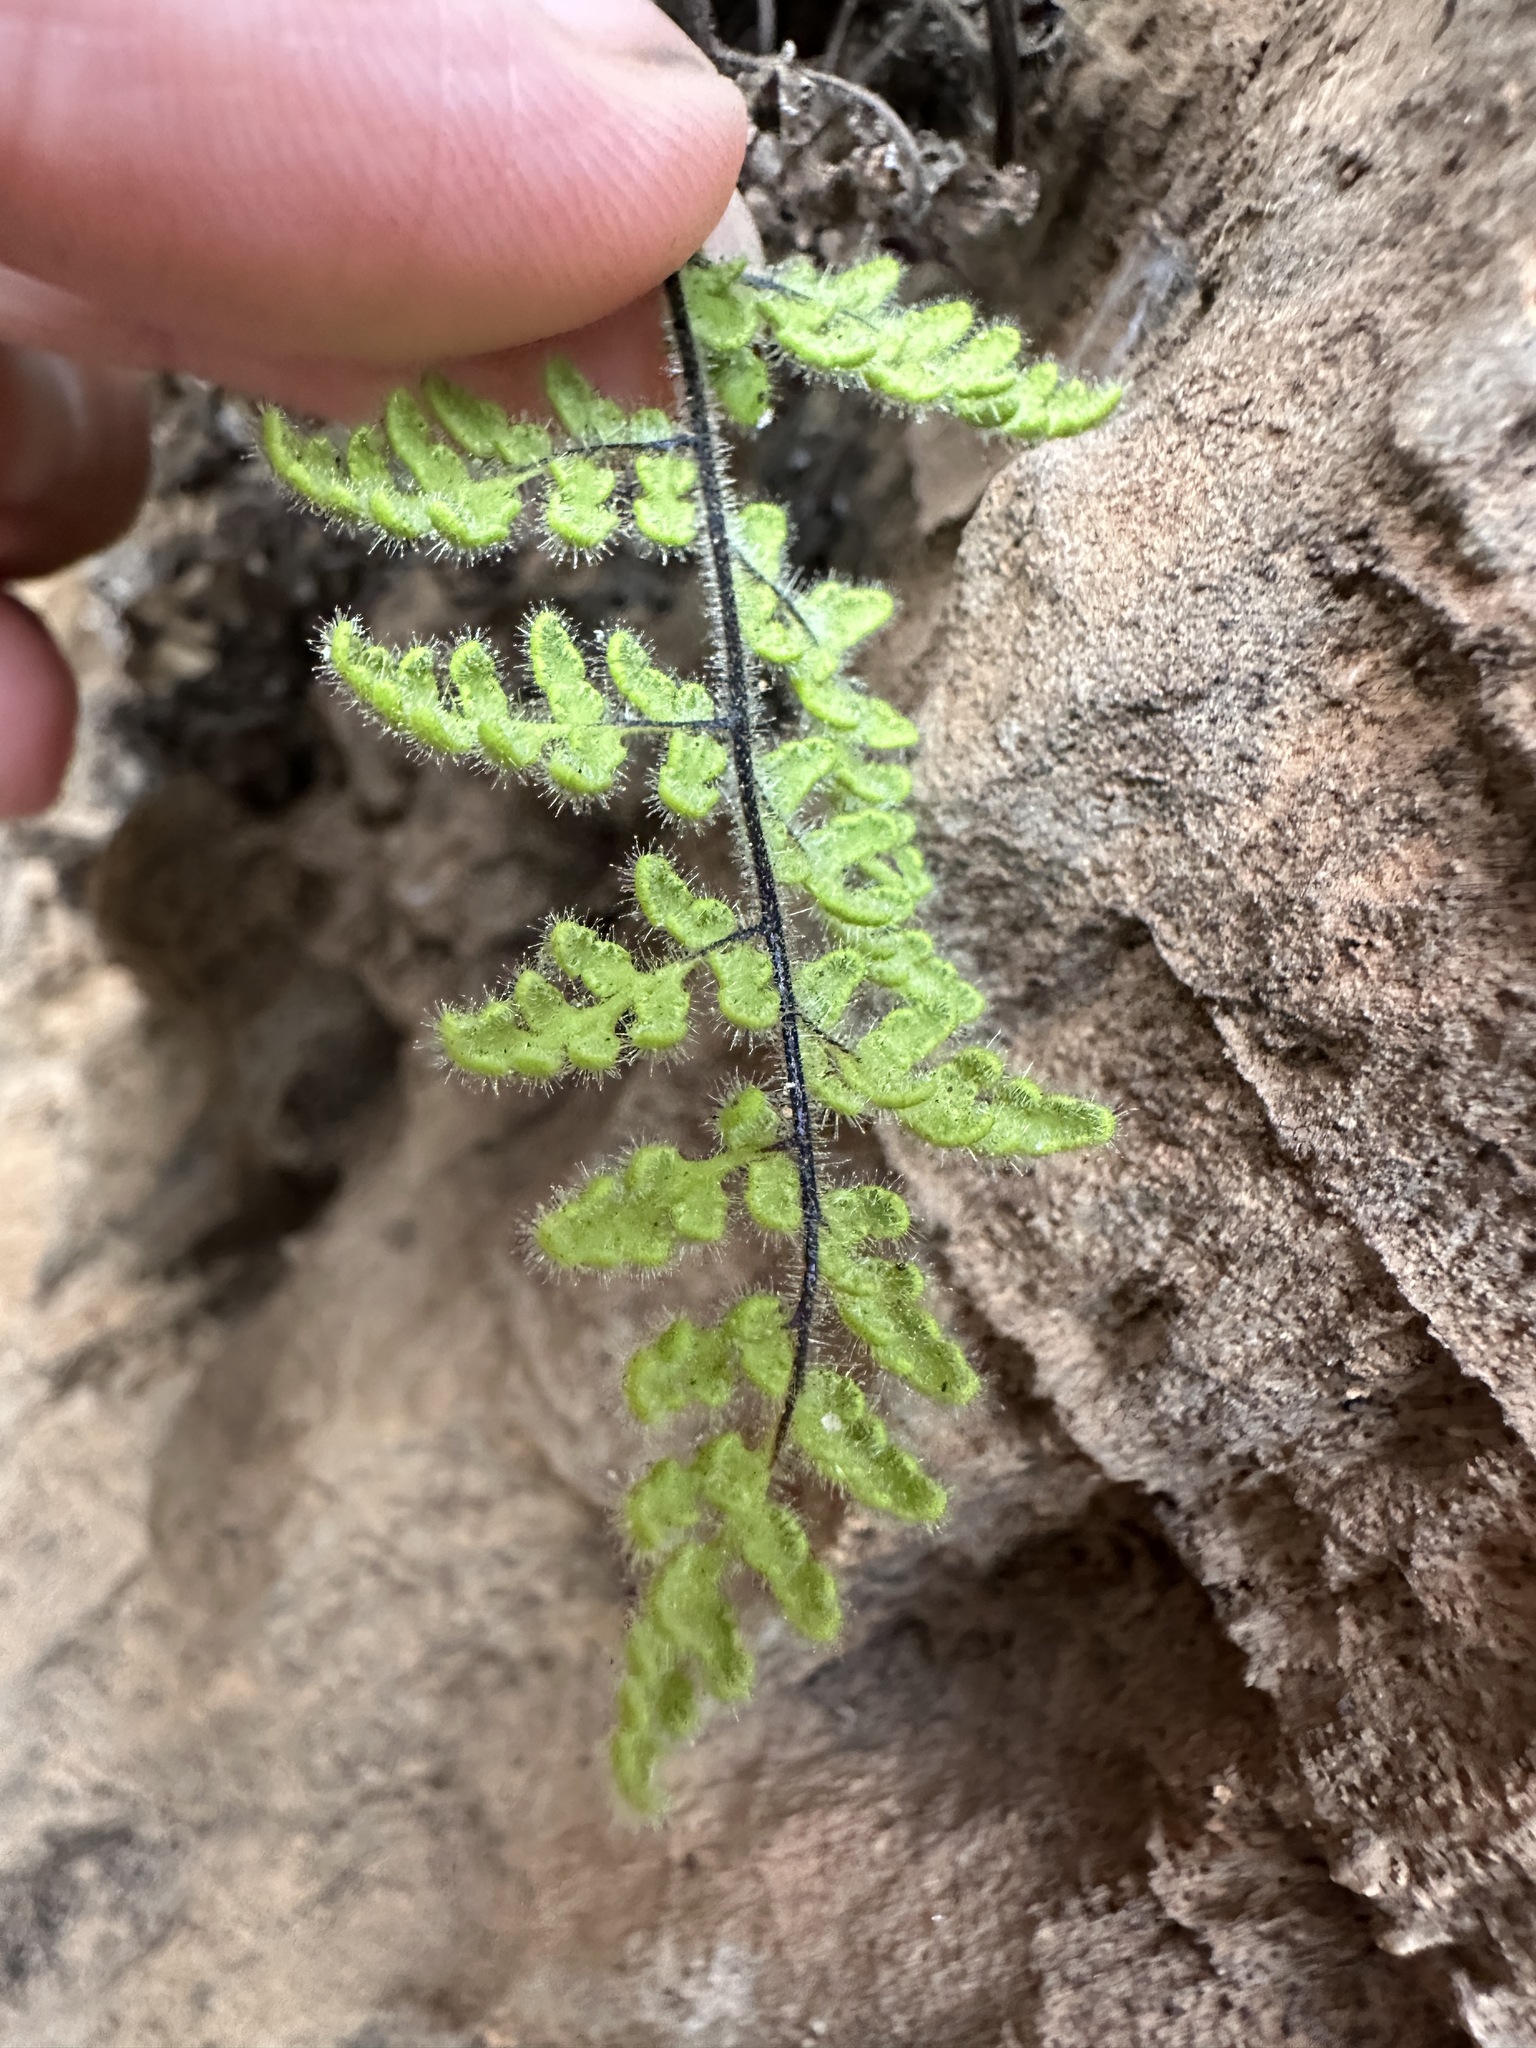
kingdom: Plantae
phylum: Tracheophyta
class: Polypodiopsida
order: Polypodiales
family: Pteridaceae
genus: Myriopteris
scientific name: Myriopteris cooperae
